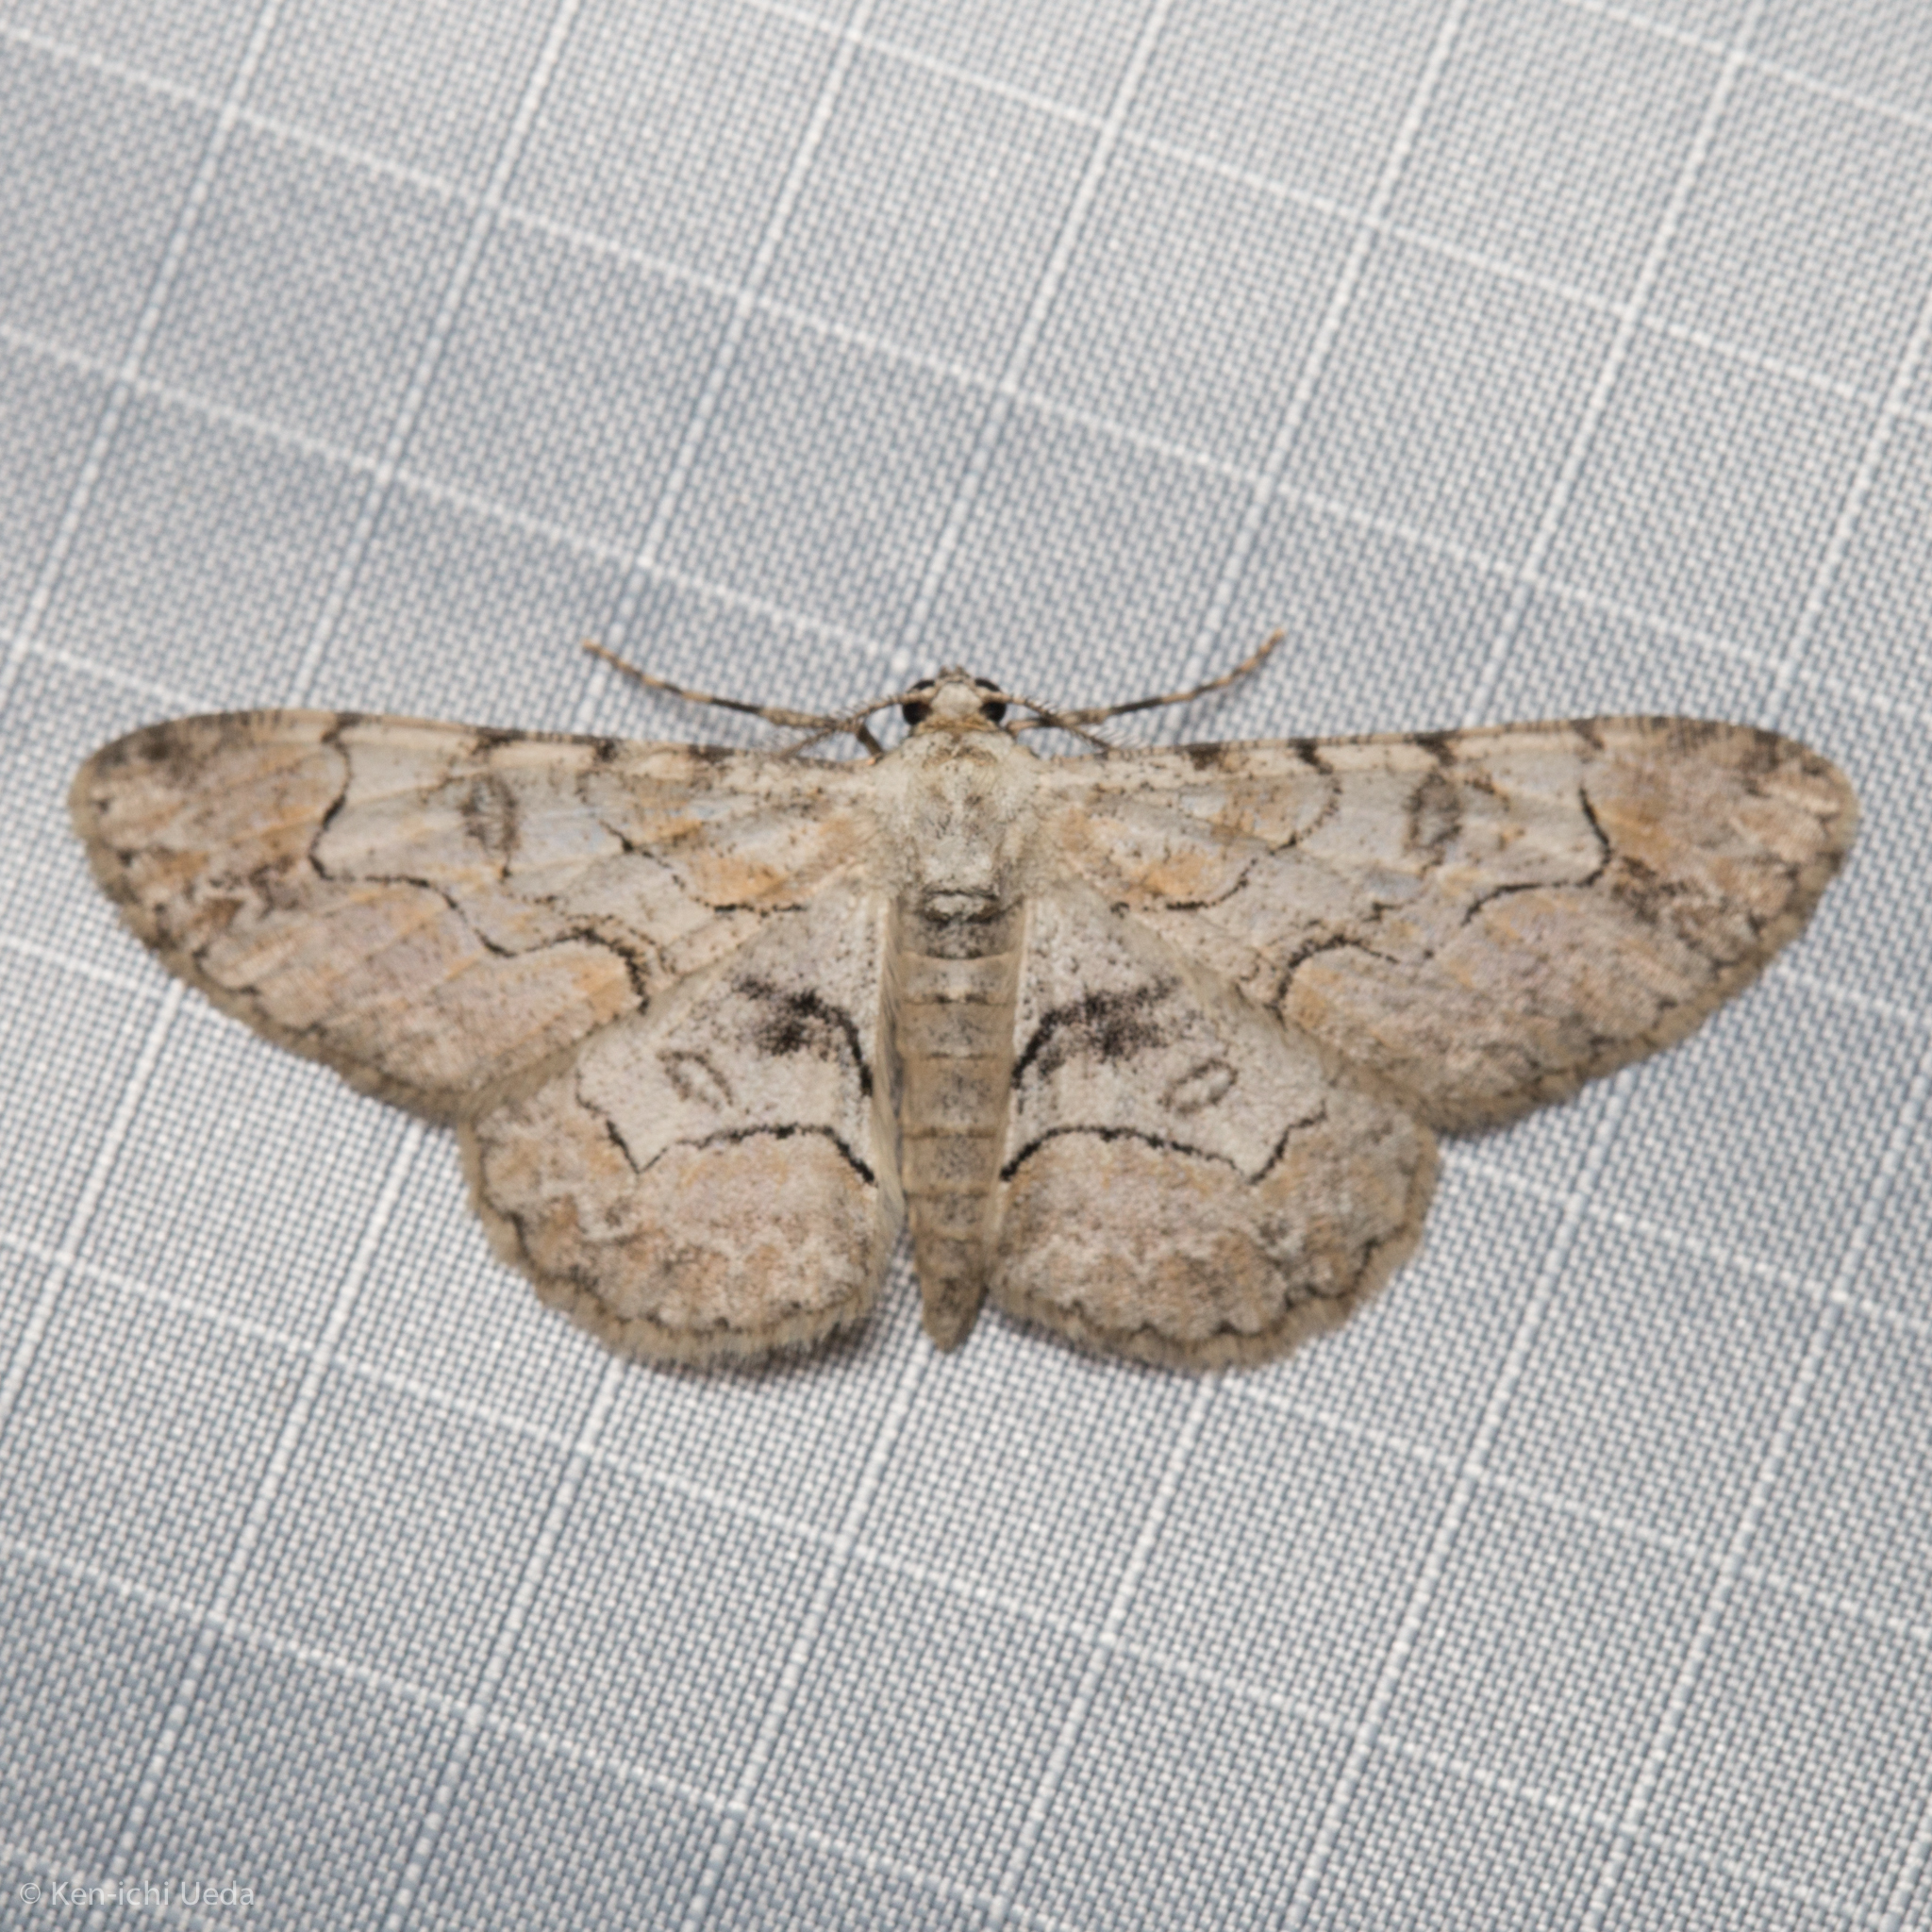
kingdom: Animalia
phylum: Arthropoda
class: Insecta
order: Lepidoptera
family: Geometridae
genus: Iridopsis
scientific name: Iridopsis larvaria
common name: Bent-line gray
